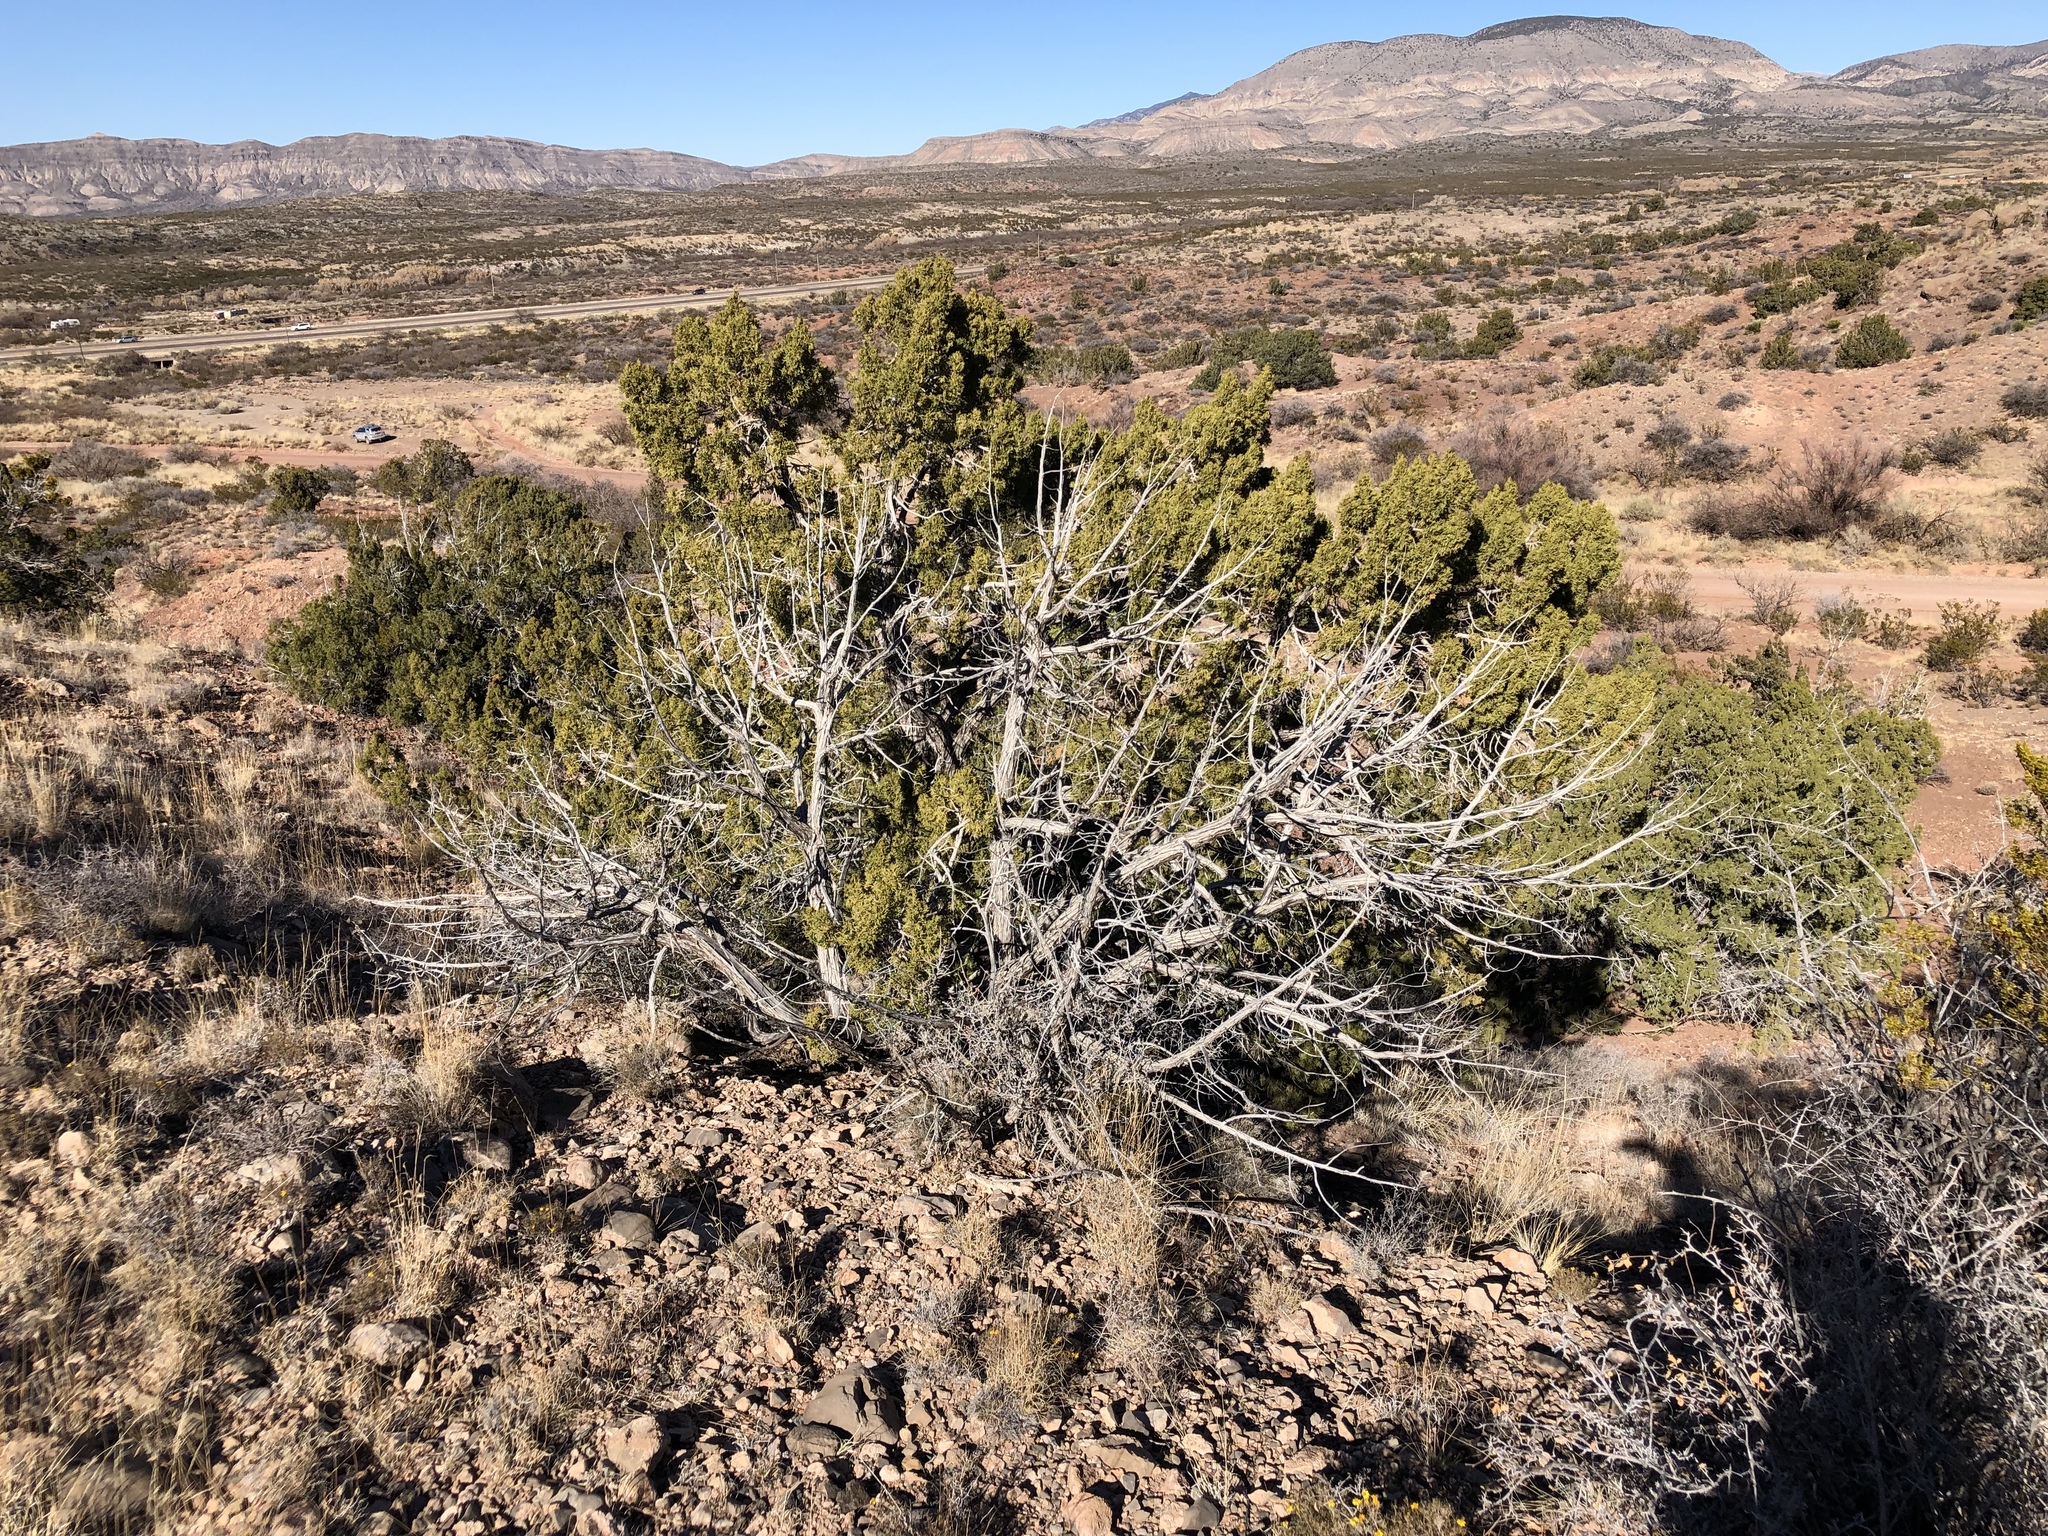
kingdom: Plantae
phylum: Tracheophyta
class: Pinopsida
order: Pinales
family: Cupressaceae
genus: Juniperus
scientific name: Juniperus monosperma
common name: One-seed juniper
